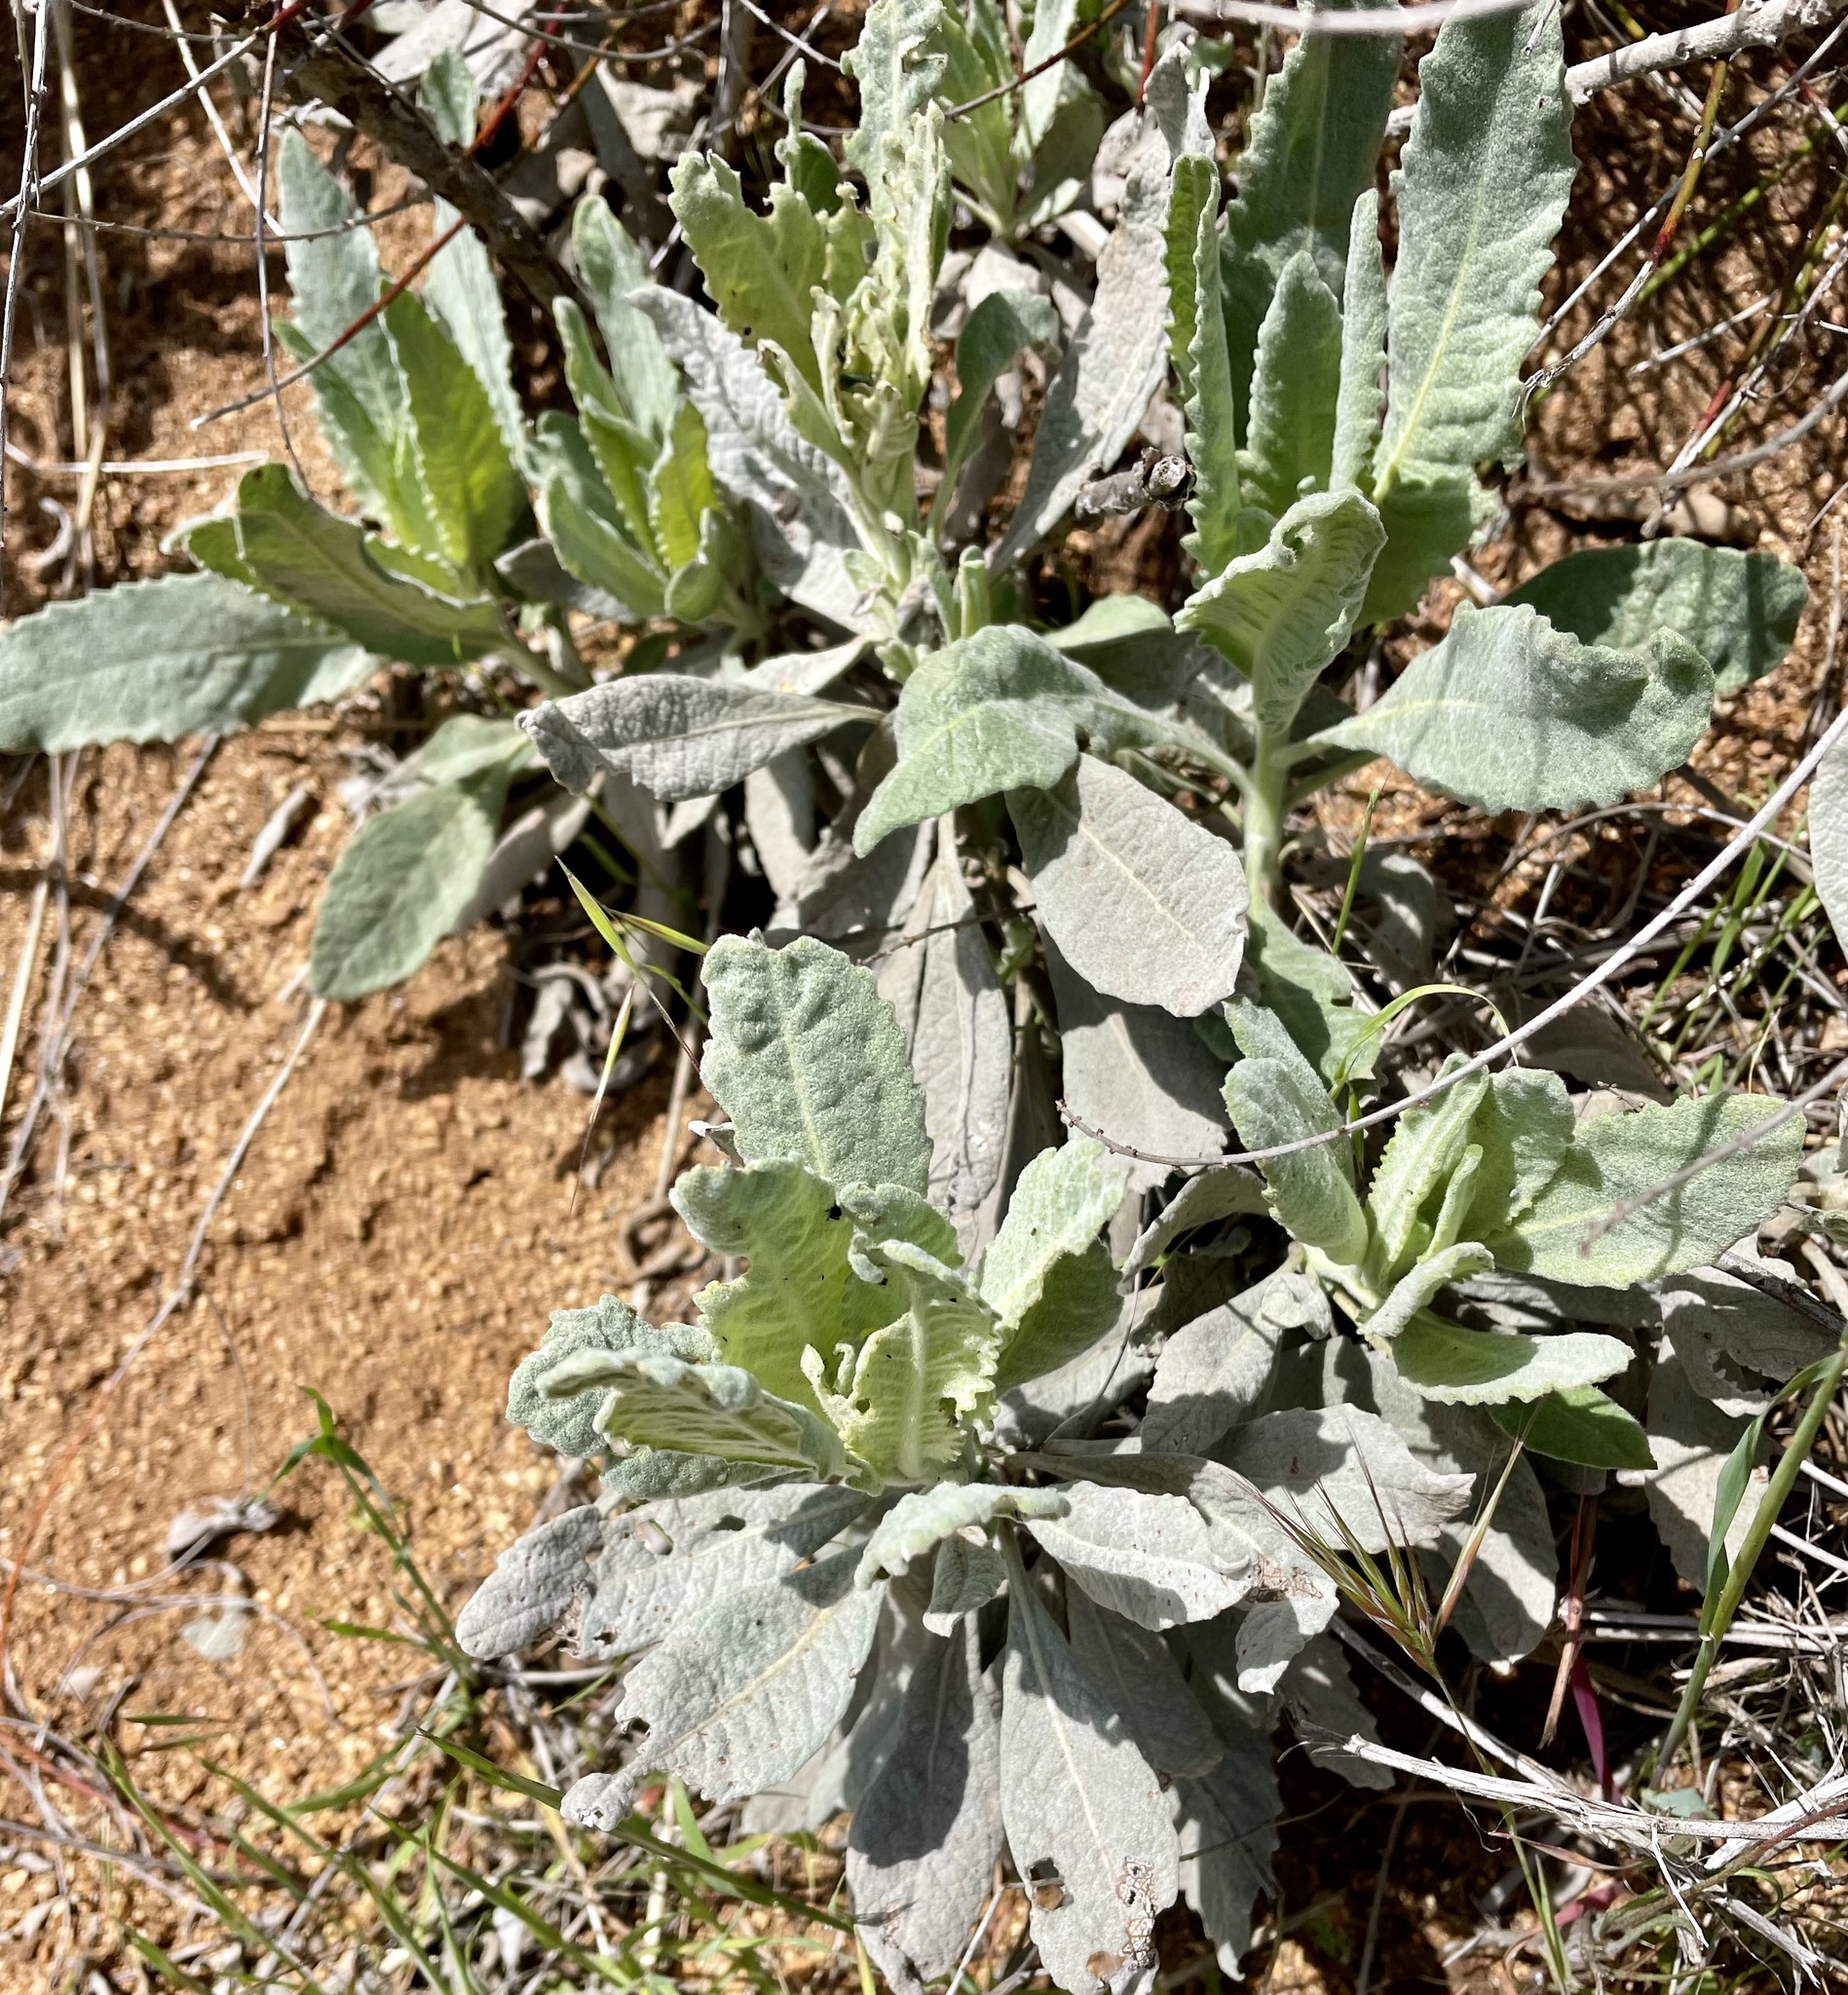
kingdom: Plantae
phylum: Tracheophyta
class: Magnoliopsida
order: Boraginales
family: Namaceae
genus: Eriodictyon
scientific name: Eriodictyon tomentosum
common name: Woolly yerba-santa
